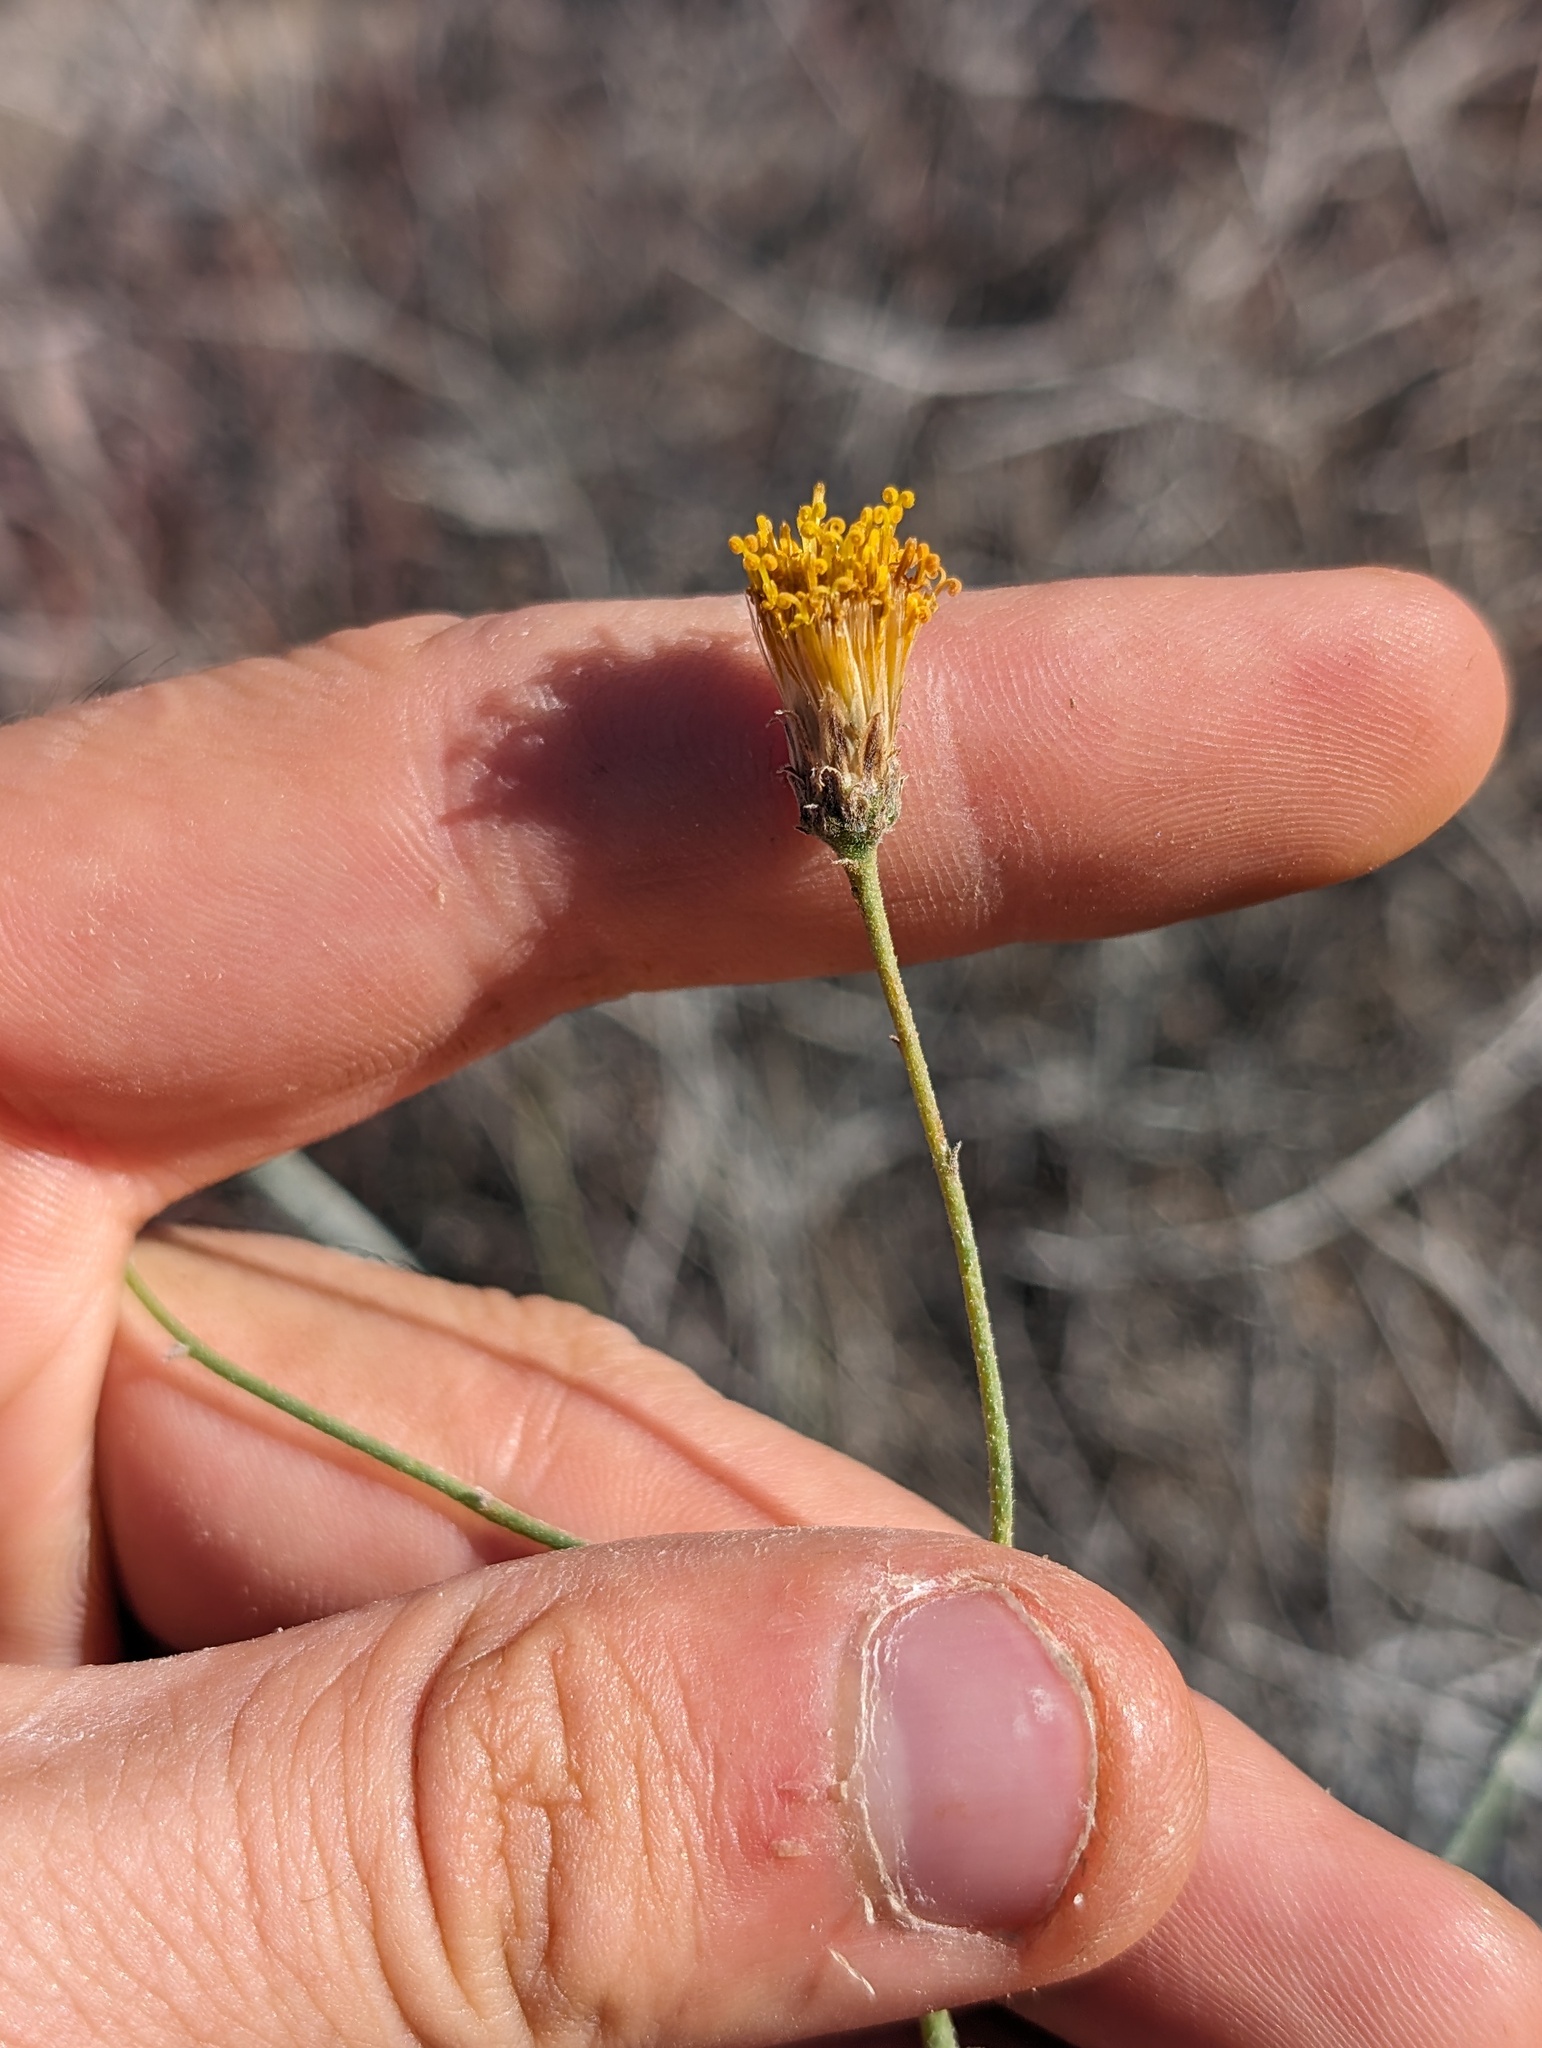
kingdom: Plantae
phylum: Tracheophyta
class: Magnoliopsida
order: Asterales
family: Asteraceae
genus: Bebbia
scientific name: Bebbia juncea
